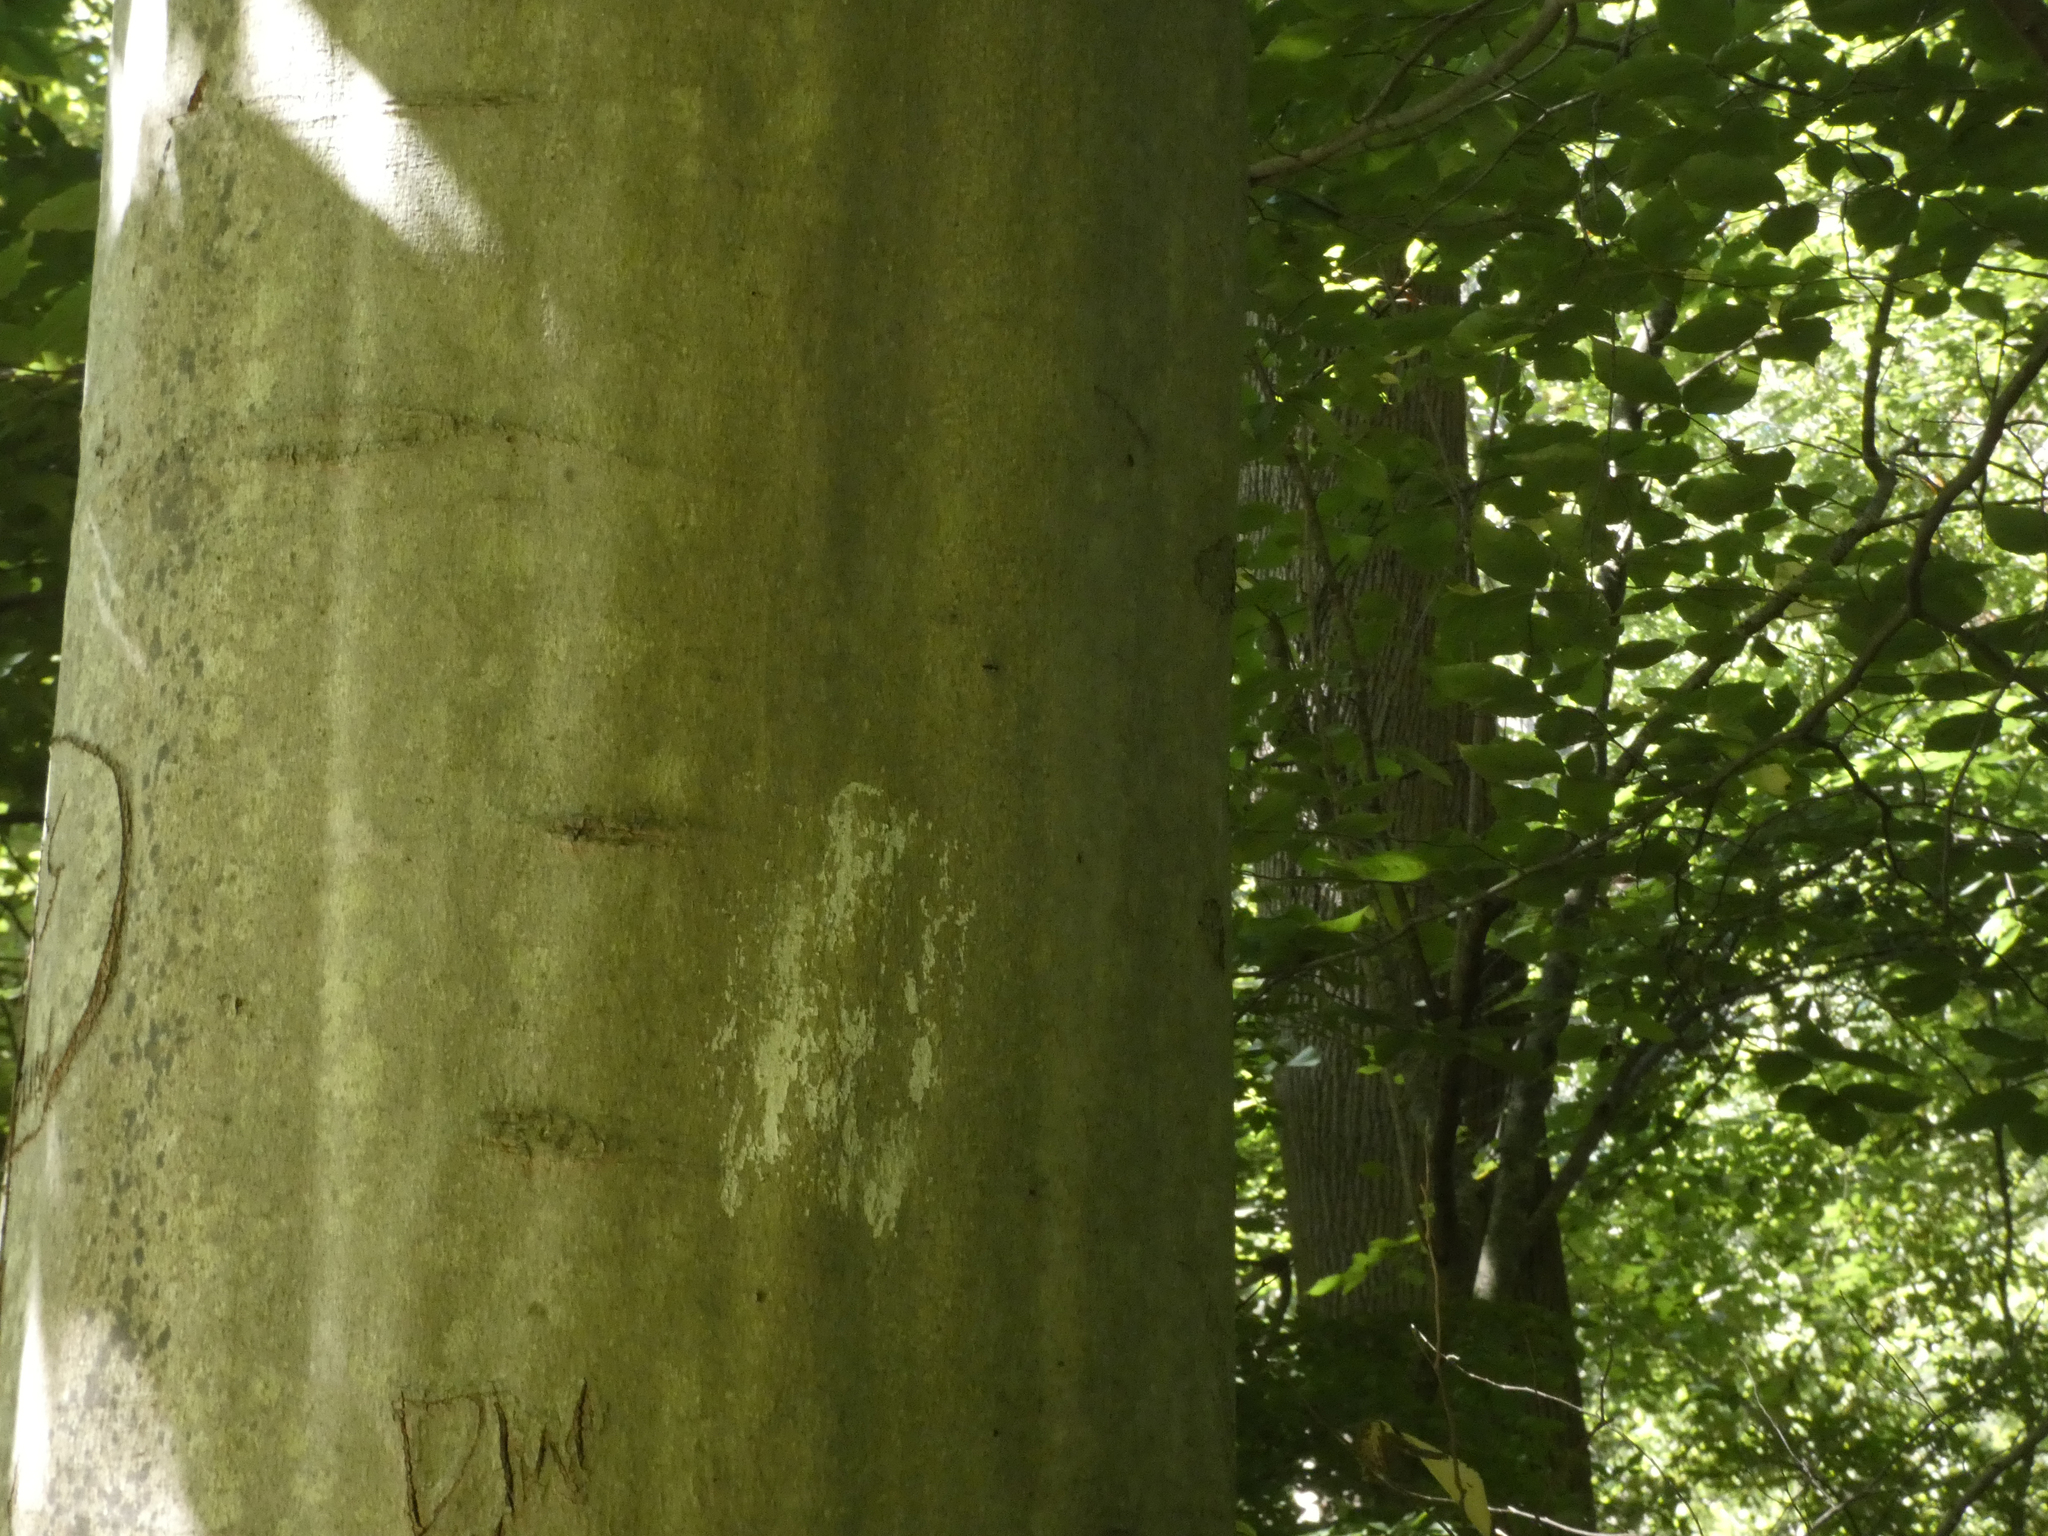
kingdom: Plantae
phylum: Tracheophyta
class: Magnoliopsida
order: Fagales
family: Fagaceae
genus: Fagus
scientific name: Fagus grandifolia
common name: American beech
